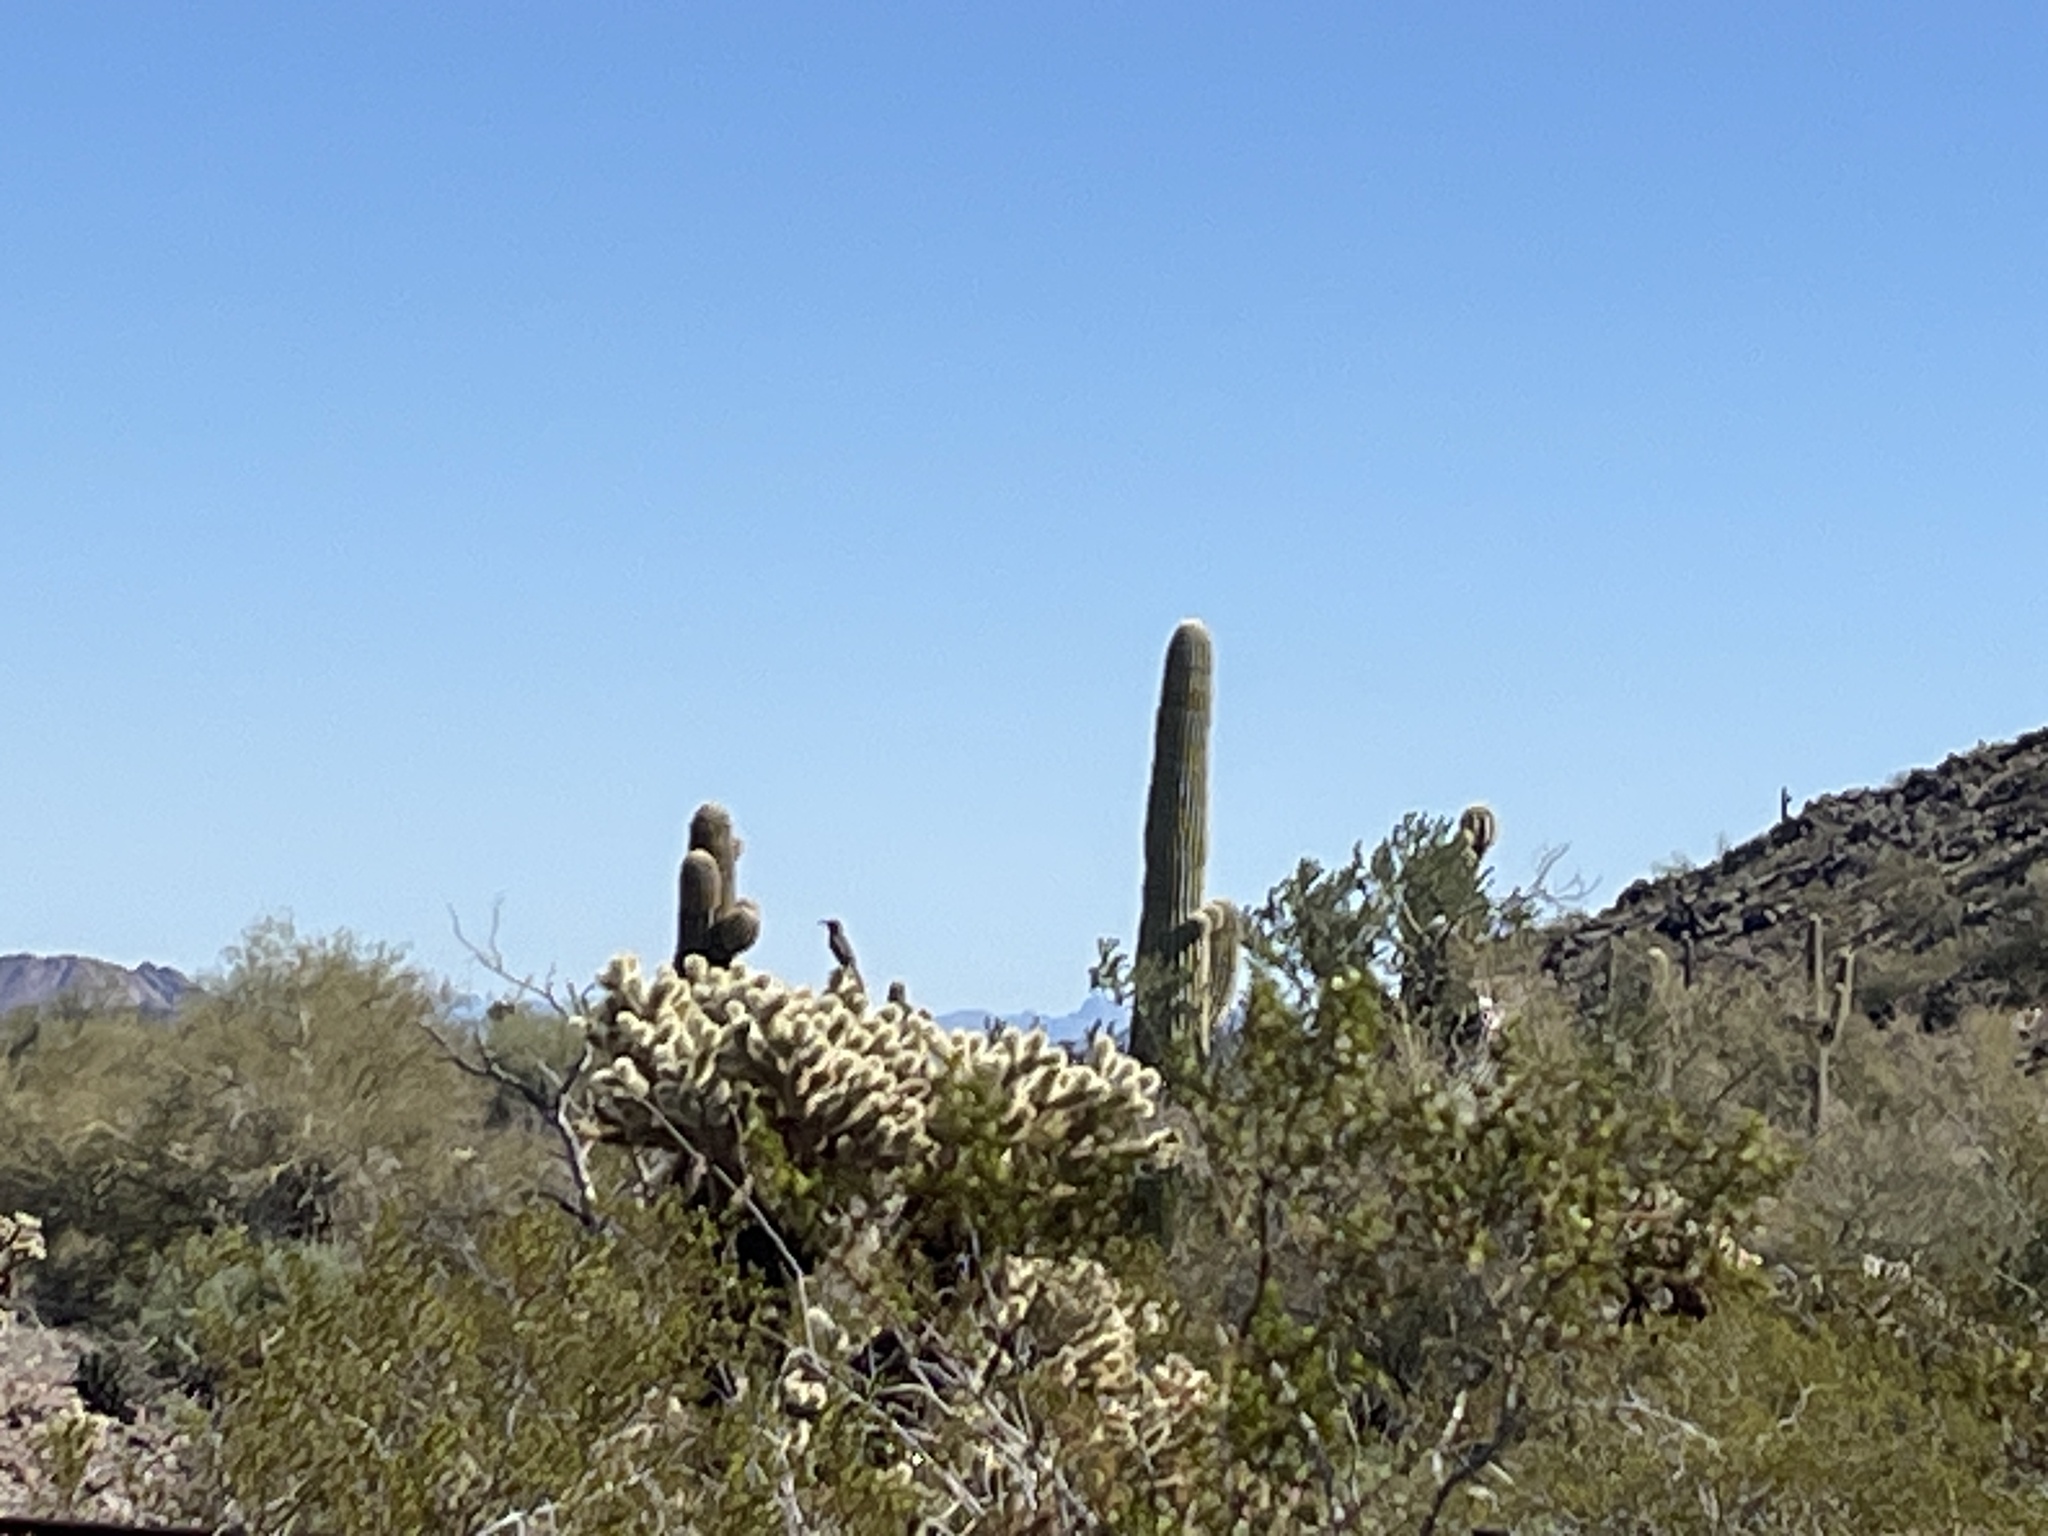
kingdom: Animalia
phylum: Chordata
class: Aves
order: Passeriformes
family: Mimidae
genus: Toxostoma
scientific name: Toxostoma curvirostre
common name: Curve-billed thrasher
